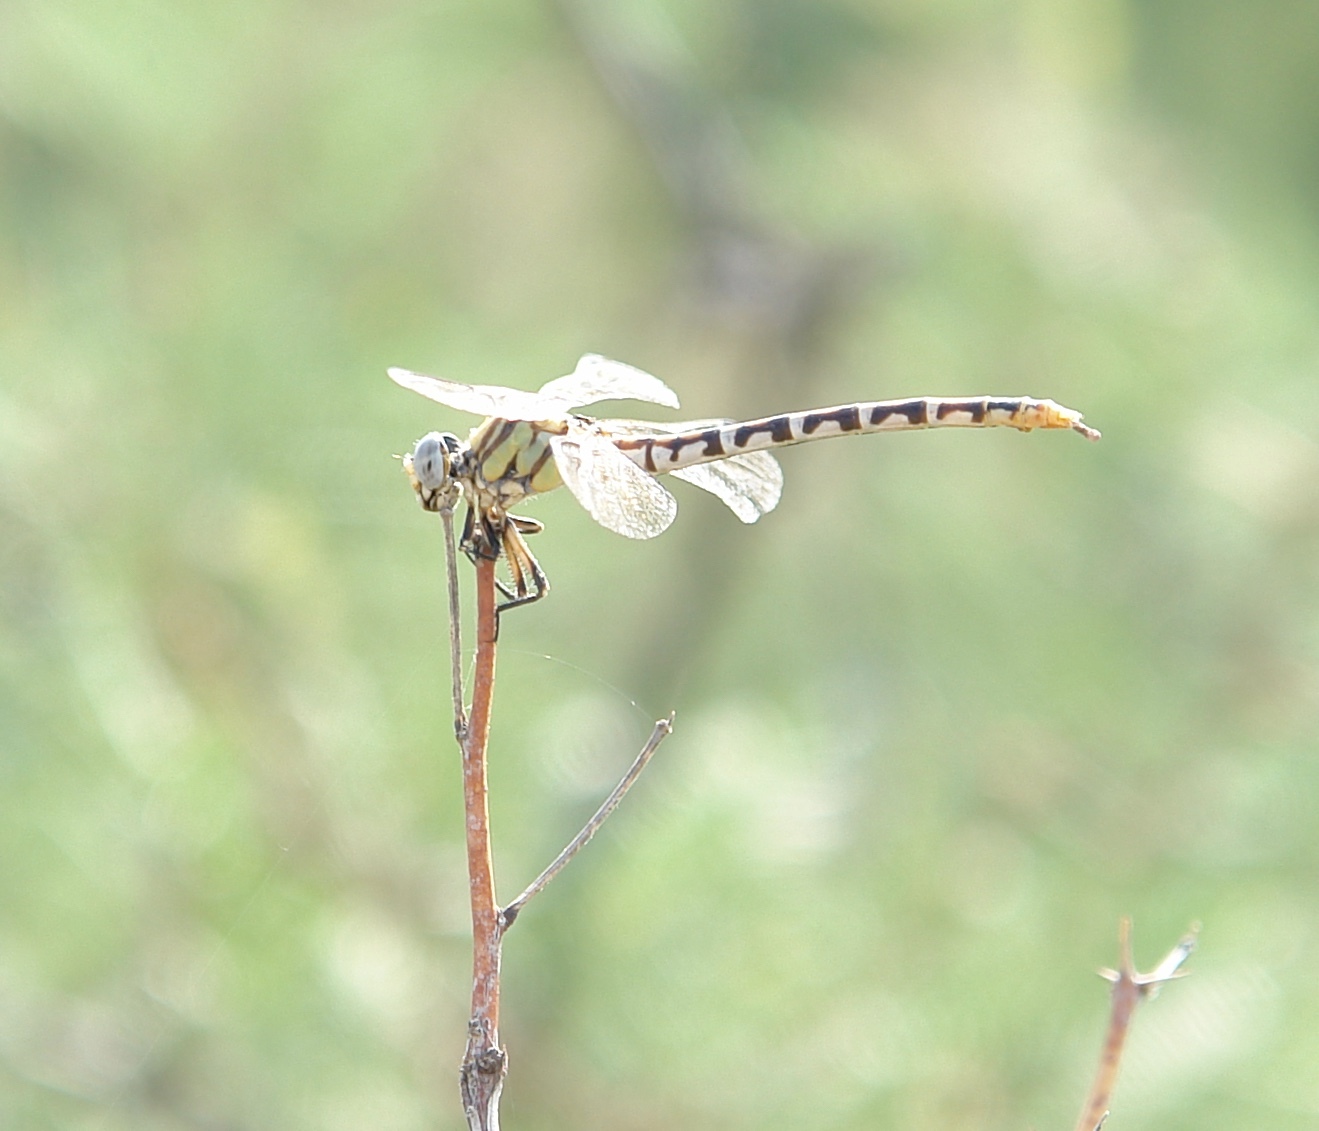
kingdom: Animalia
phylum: Arthropoda
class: Insecta
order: Odonata
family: Gomphidae
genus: Erpetogomphus
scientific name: Erpetogomphus designatus
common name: Eastern ringtail
